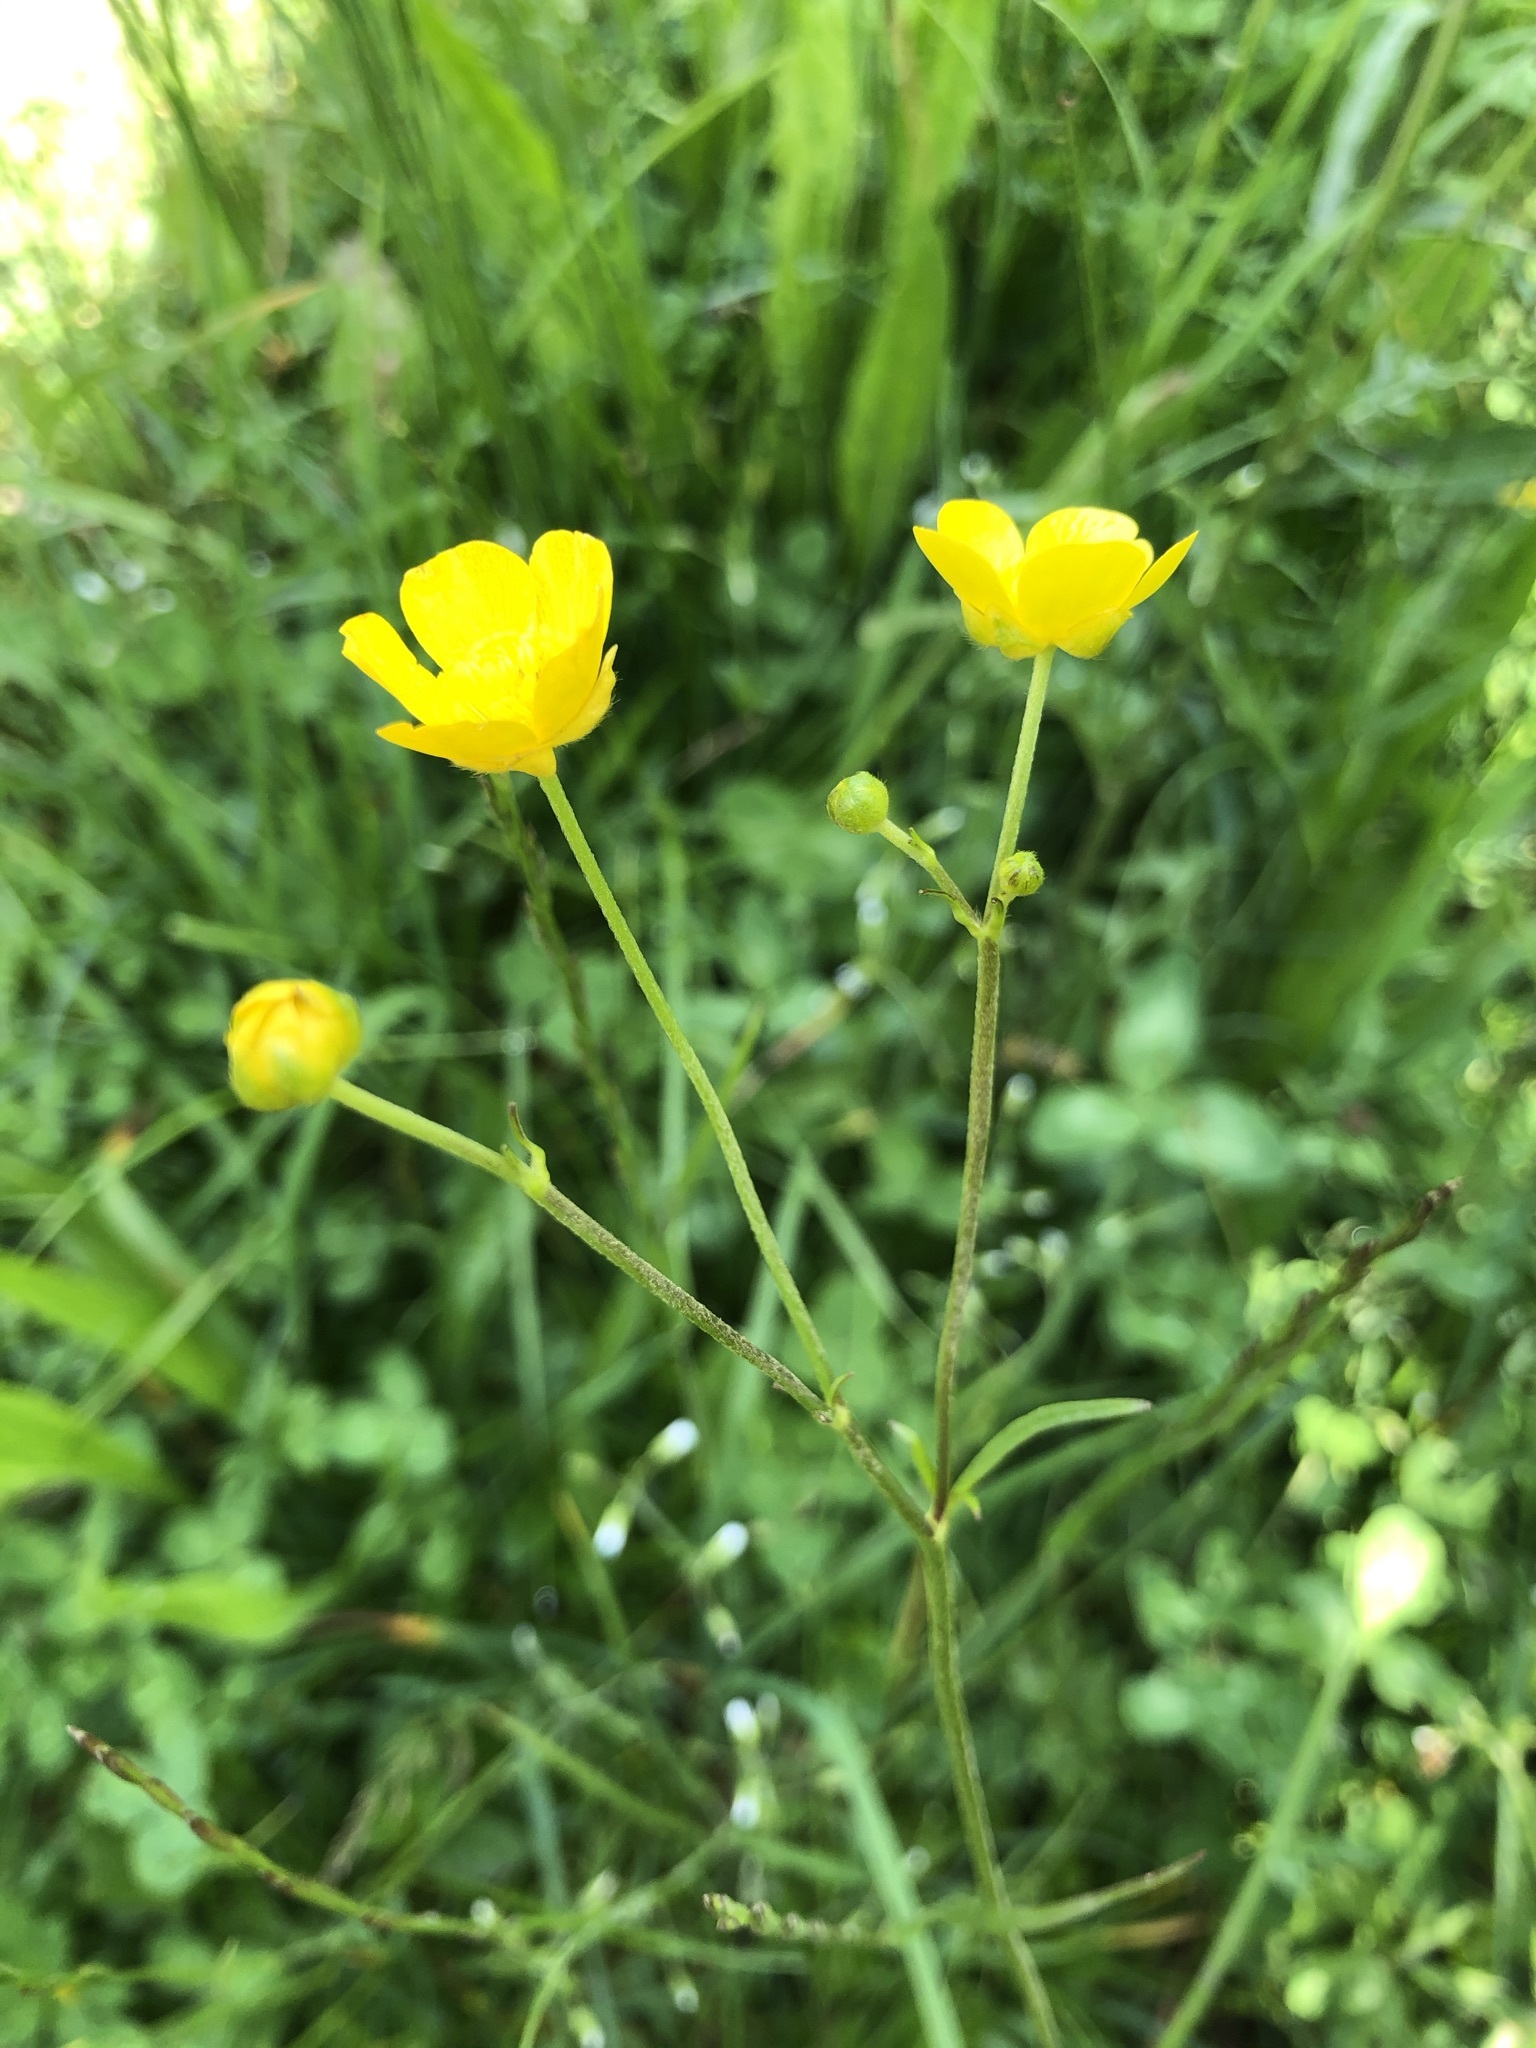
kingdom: Plantae
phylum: Tracheophyta
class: Magnoliopsida
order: Ranunculales
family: Ranunculaceae
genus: Ranunculus
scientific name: Ranunculus acris
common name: Meadow buttercup
